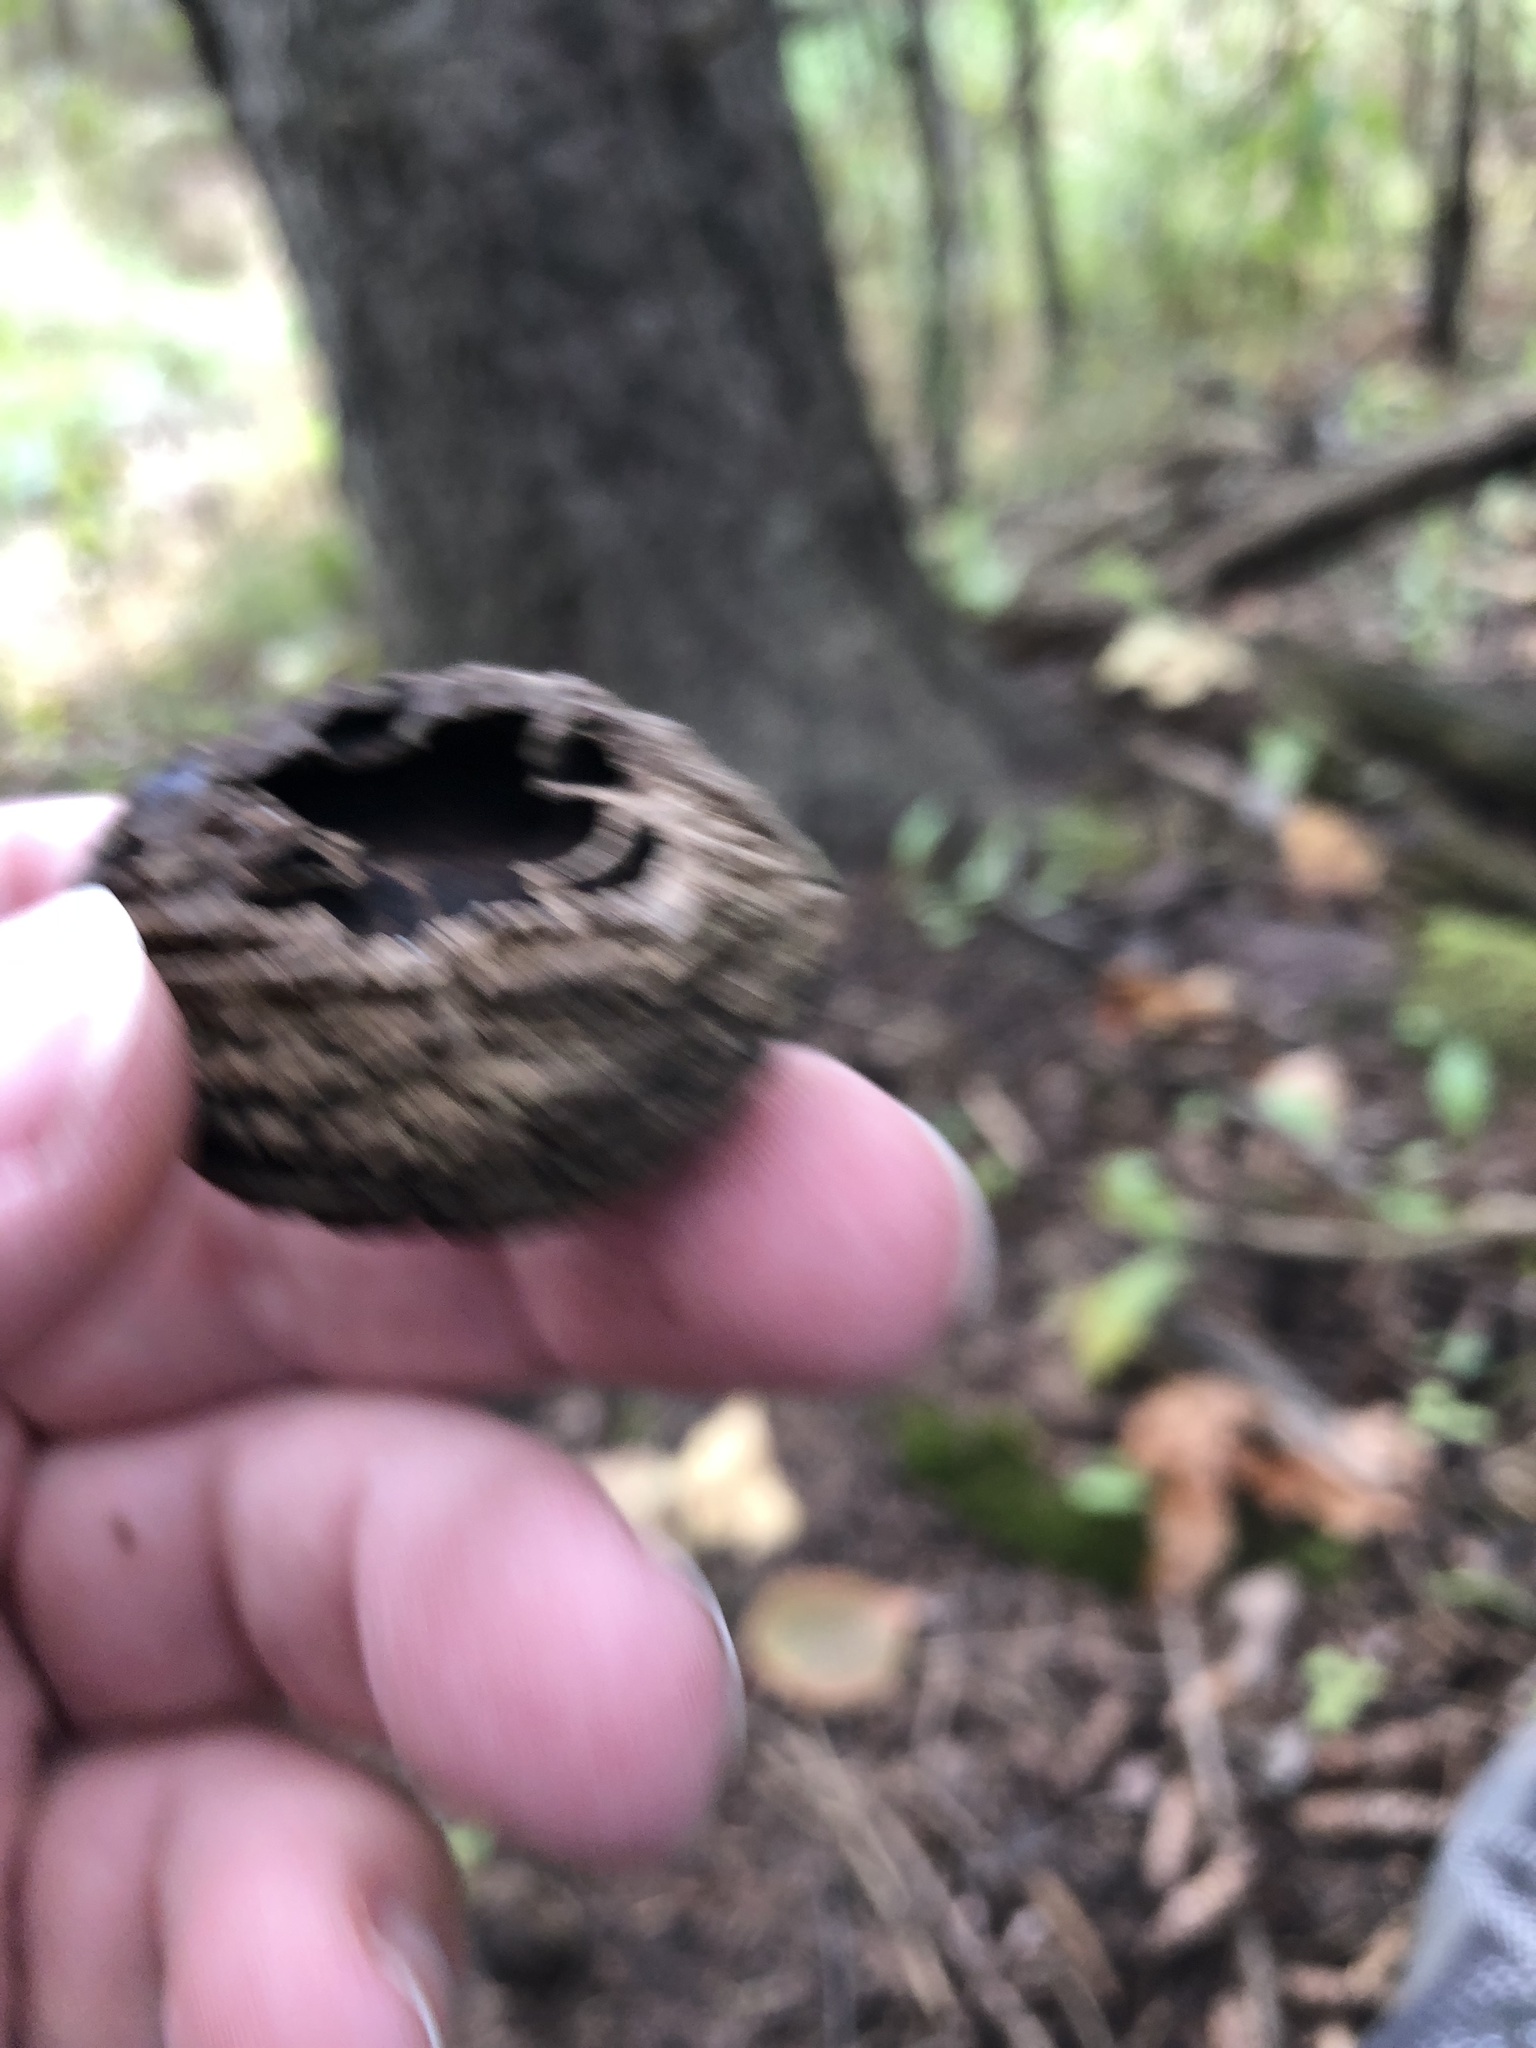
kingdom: Plantae
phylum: Tracheophyta
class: Magnoliopsida
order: Fagales
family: Juglandaceae
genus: Juglans
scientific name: Juglans nigra
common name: Black walnut
